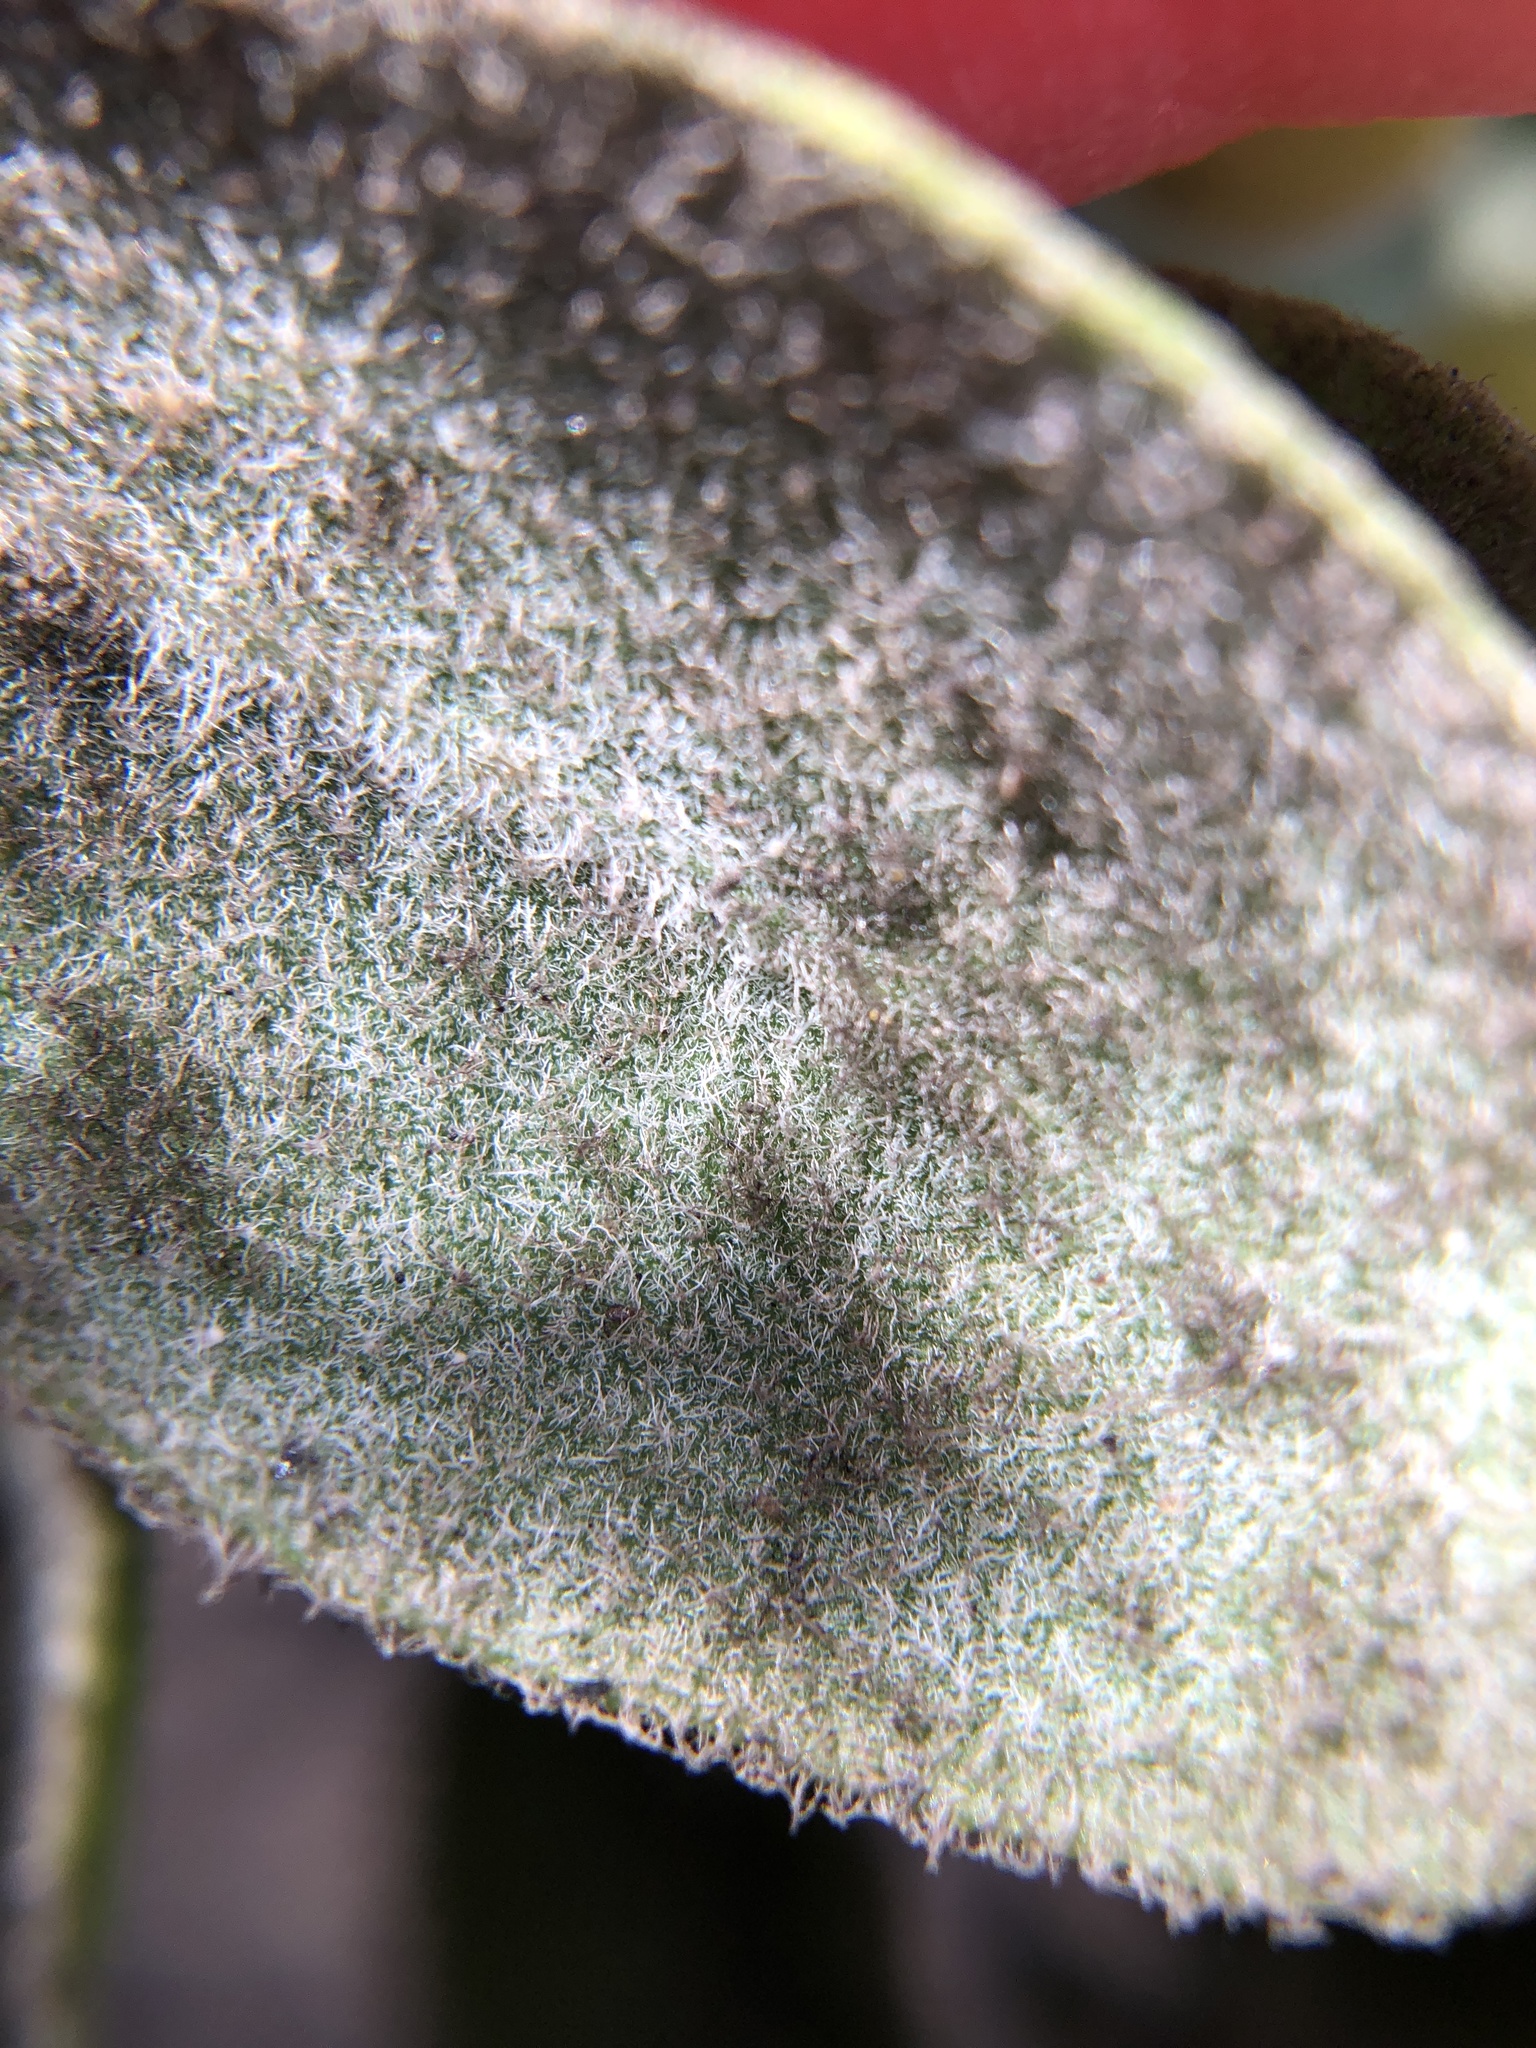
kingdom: Plantae
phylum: Tracheophyta
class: Magnoliopsida
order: Ericales
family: Ericaceae
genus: Arctostaphylos
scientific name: Arctostaphylos tomentosa
